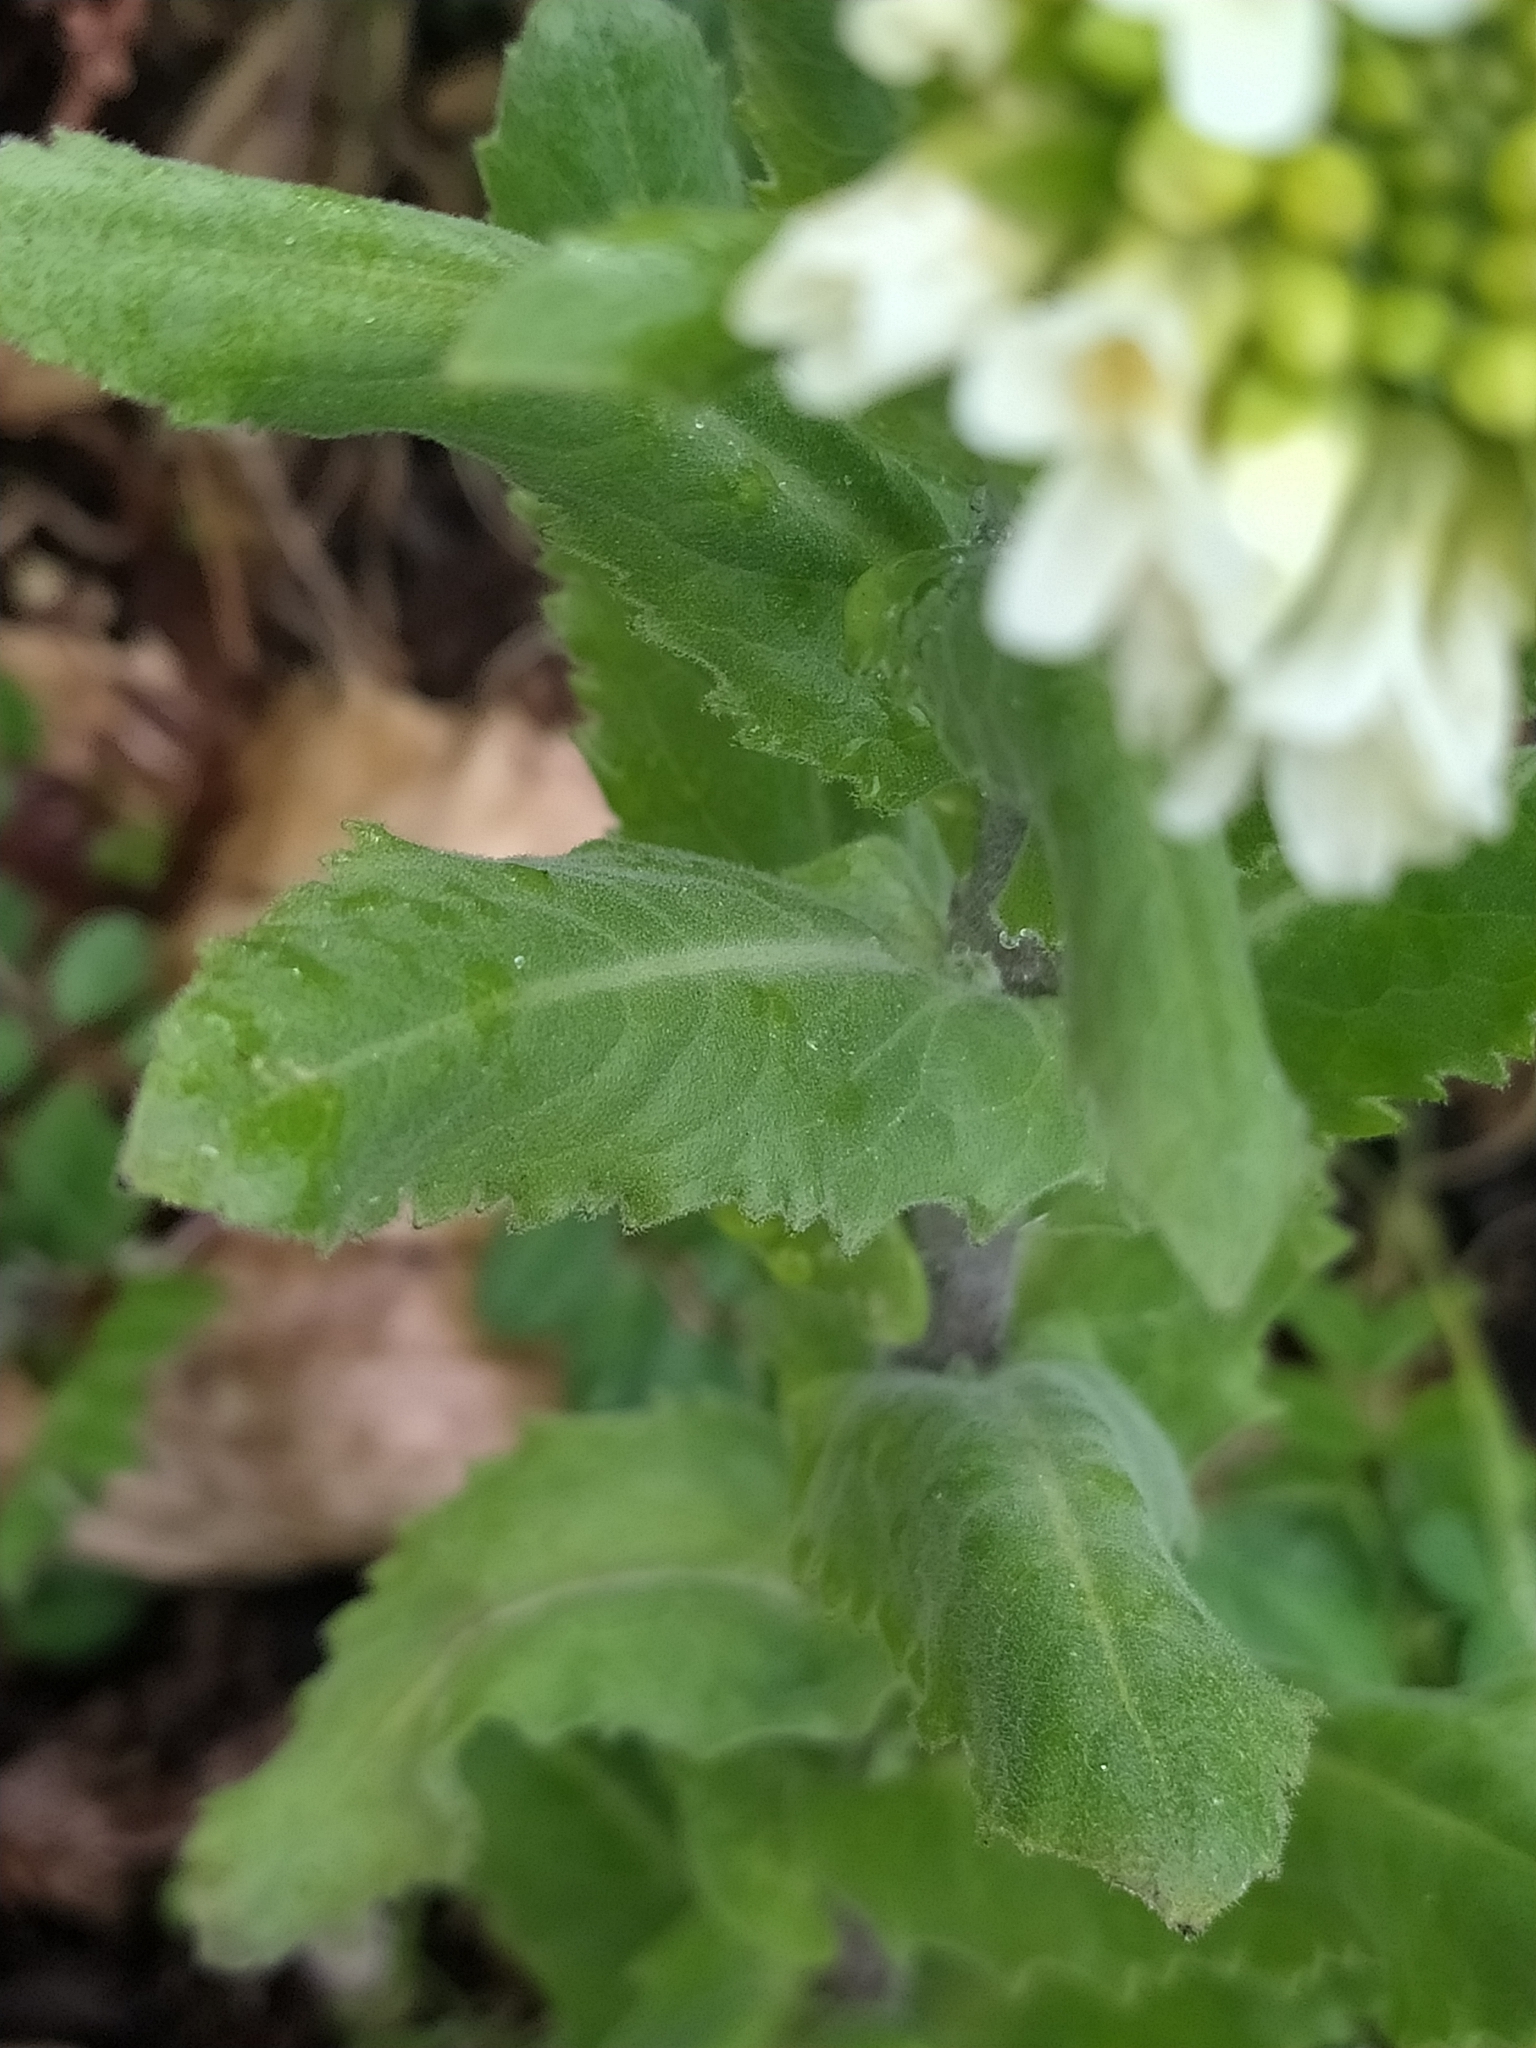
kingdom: Plantae
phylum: Tracheophyta
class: Magnoliopsida
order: Brassicales
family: Brassicaceae
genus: Pseudoturritis
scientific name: Pseudoturritis turrita
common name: Tower cress
